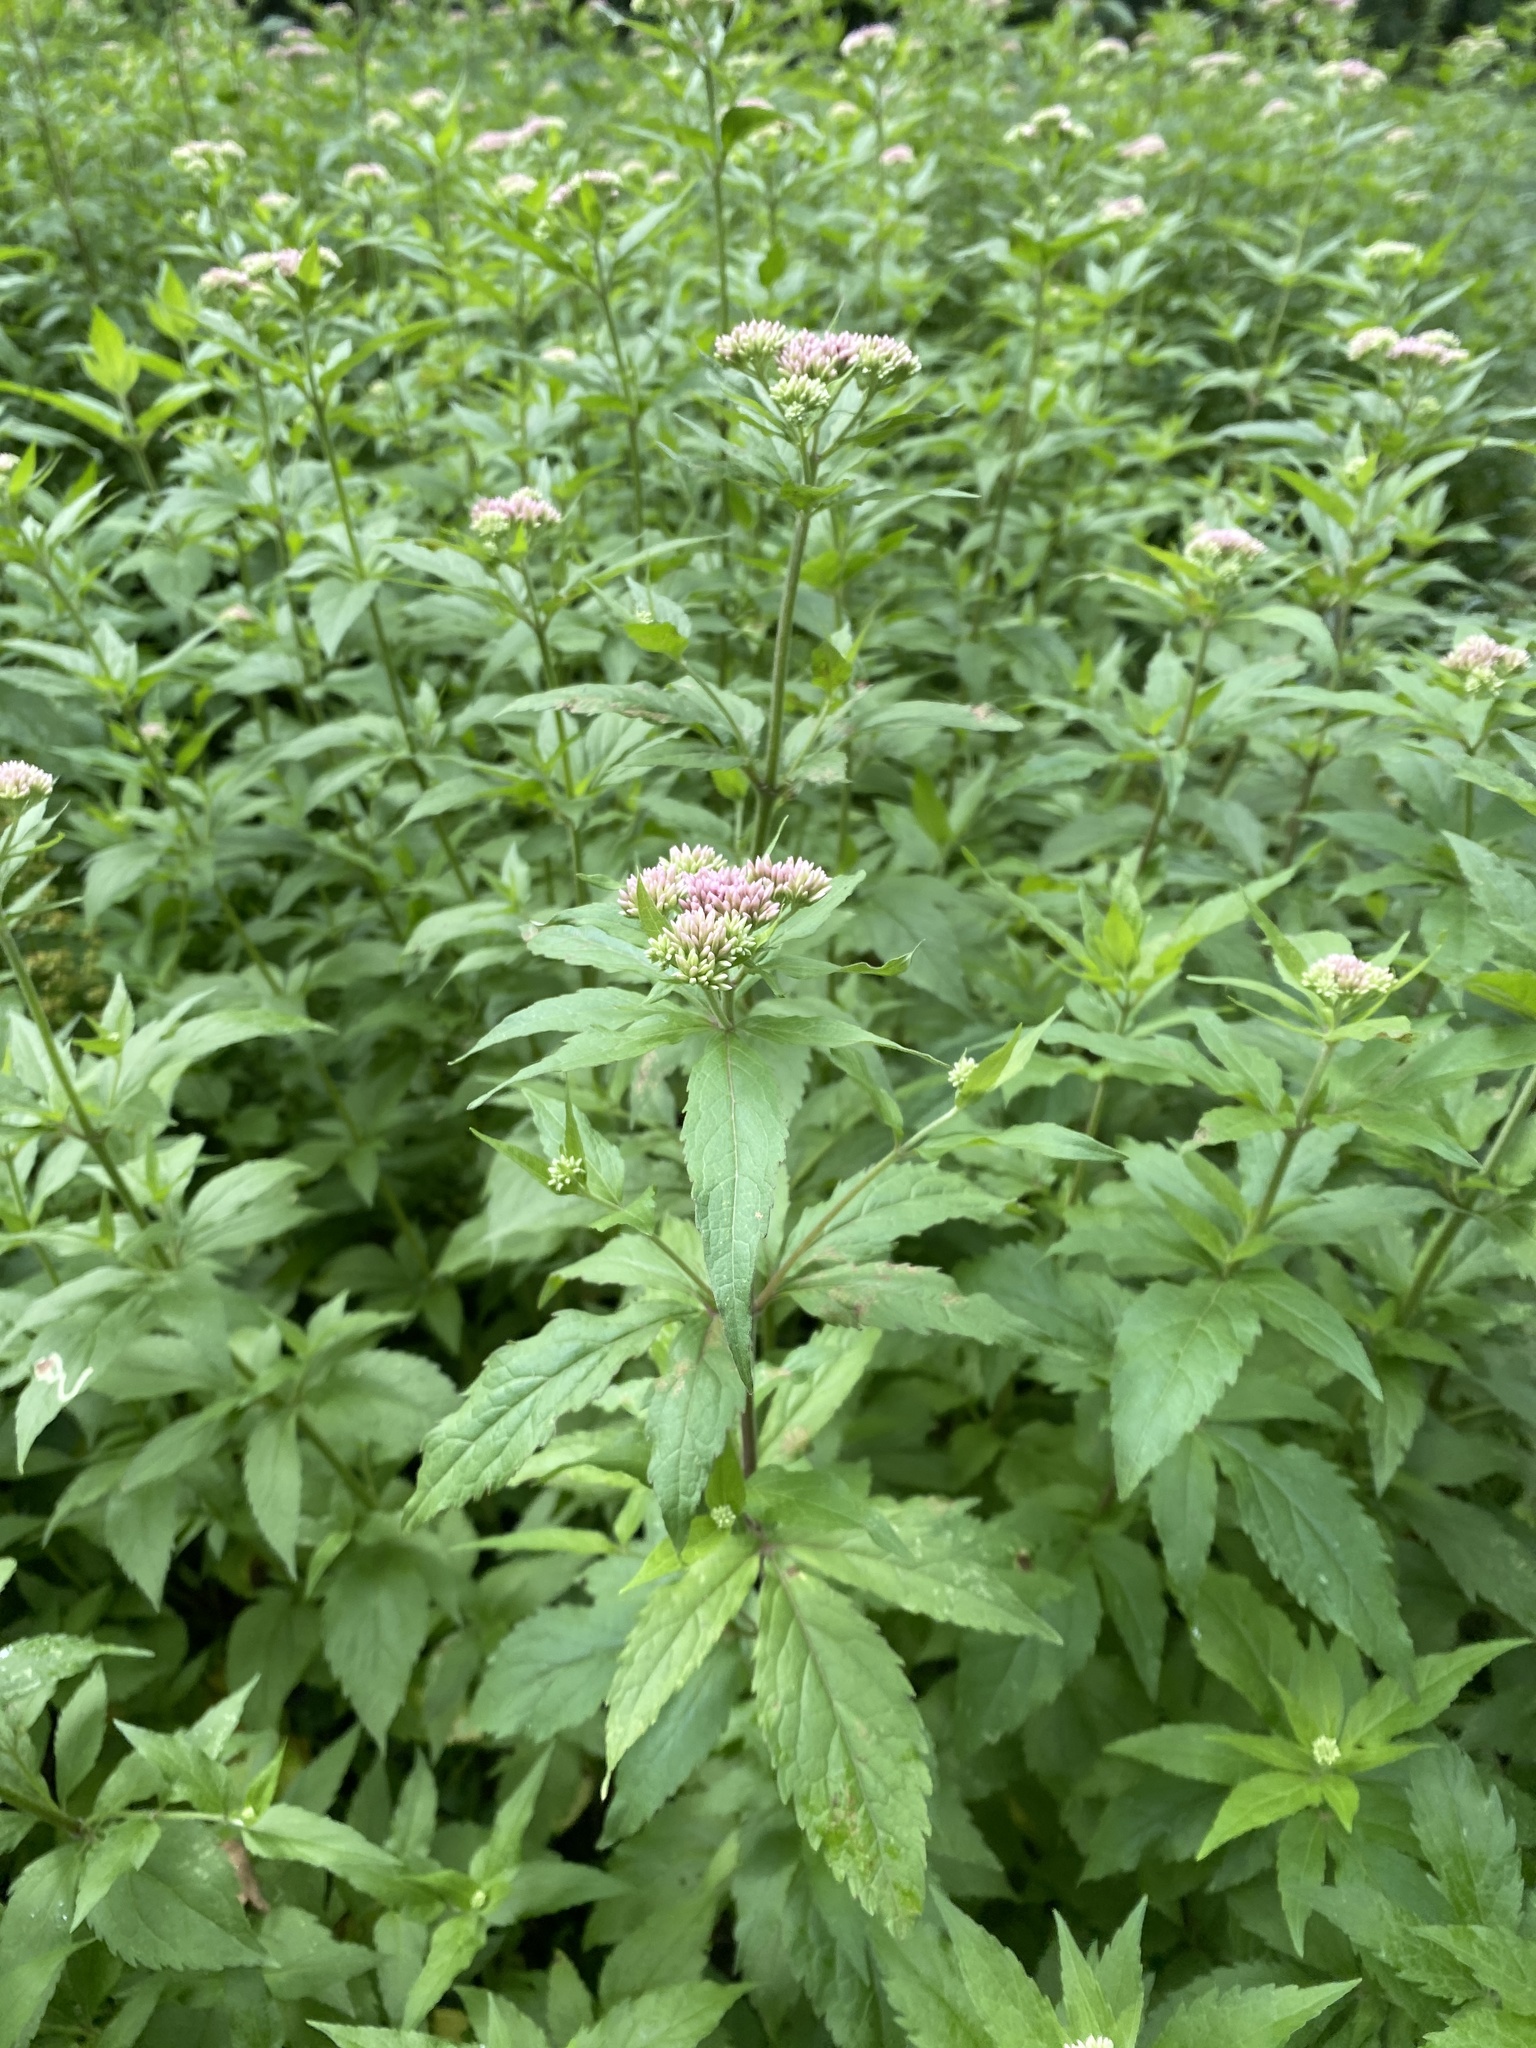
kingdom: Plantae
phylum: Tracheophyta
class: Magnoliopsida
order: Asterales
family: Asteraceae
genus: Eupatorium
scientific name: Eupatorium cannabinum
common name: Hemp-agrimony
